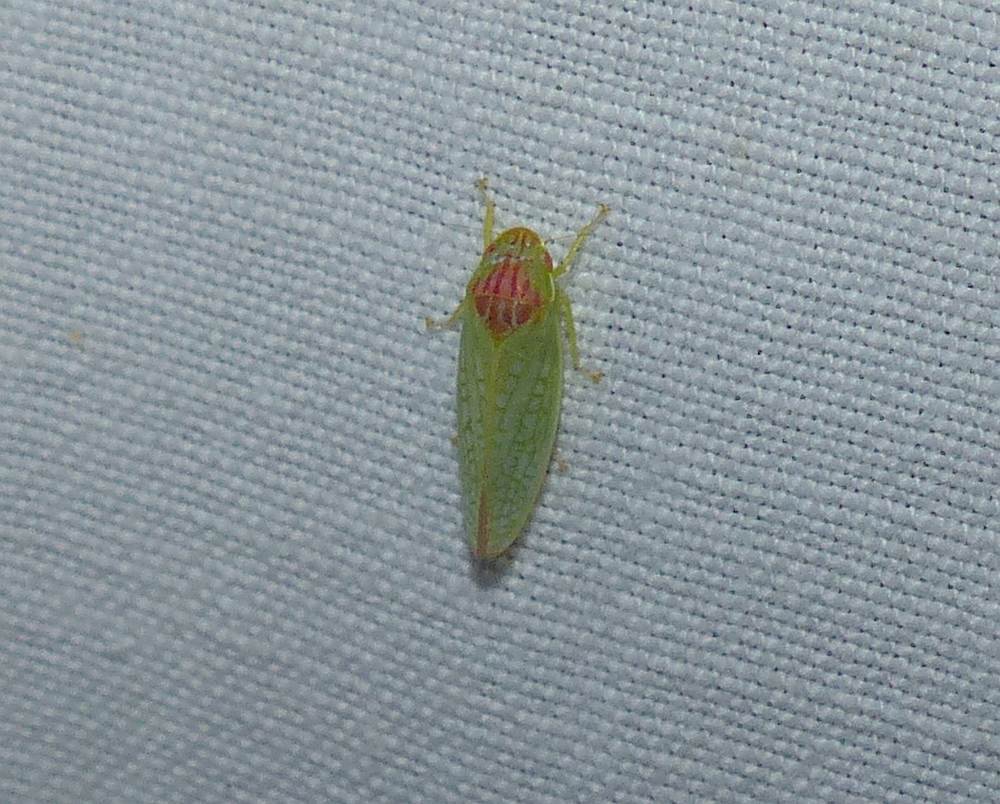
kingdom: Animalia
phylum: Arthropoda
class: Insecta
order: Hemiptera
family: Cicadellidae
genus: Gyponana
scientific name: Gyponana octolineata
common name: Eight-lined leafhopper
